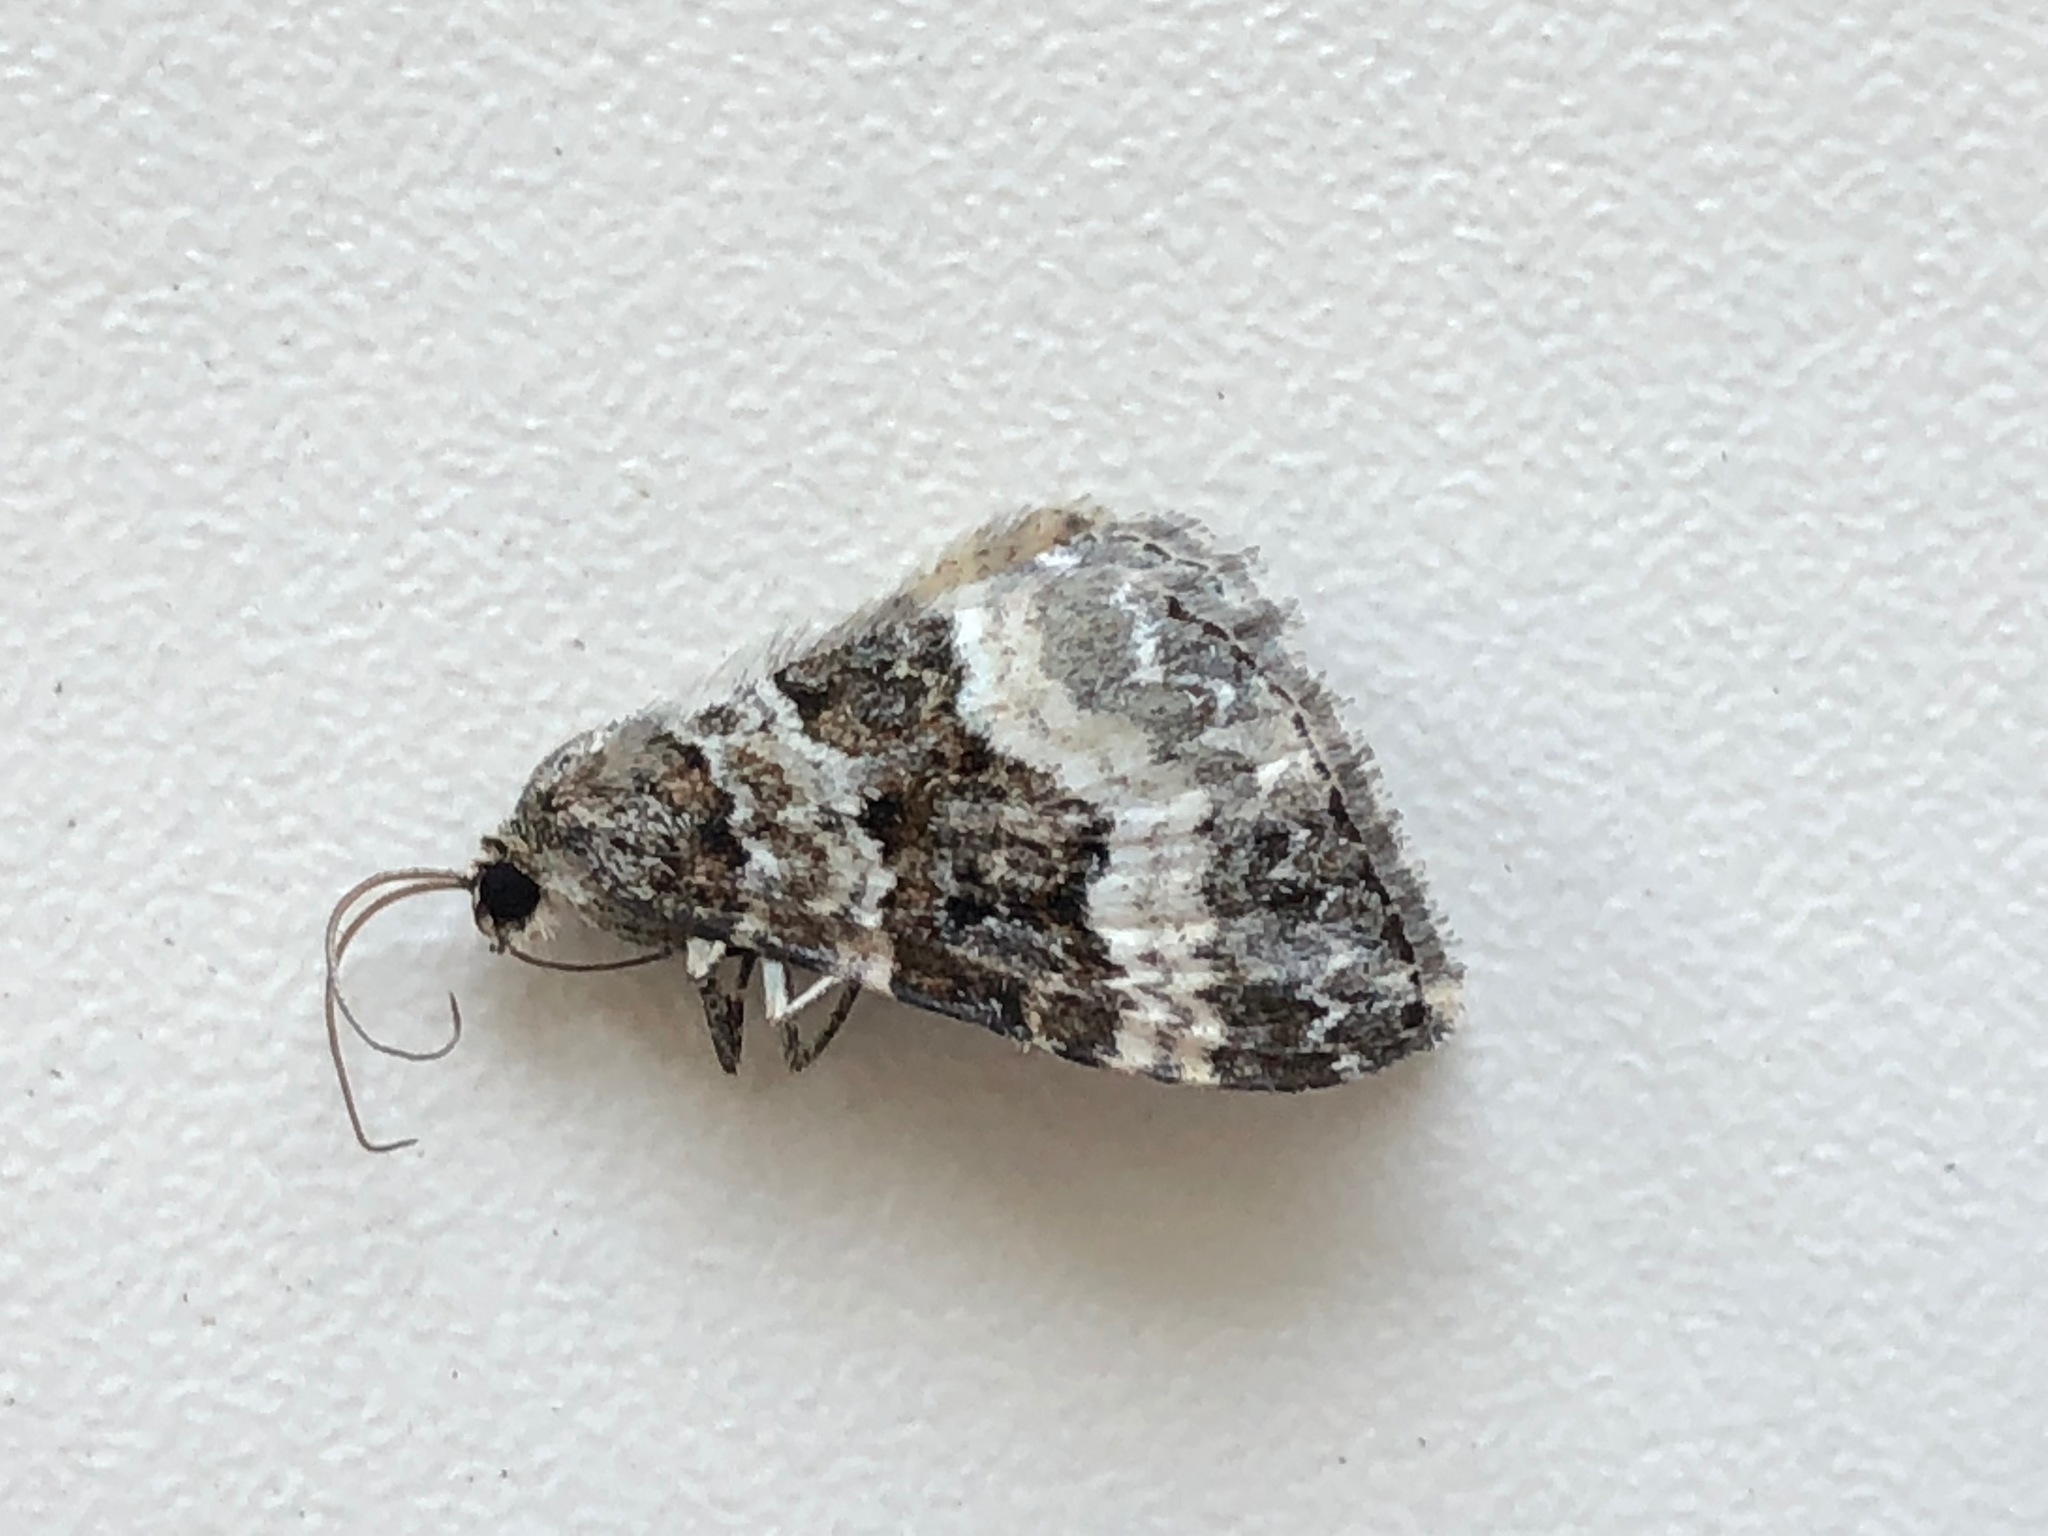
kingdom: Animalia
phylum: Arthropoda
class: Insecta
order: Lepidoptera
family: Geometridae
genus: Epirrhoe
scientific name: Epirrhoe alternata
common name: Common carpet
